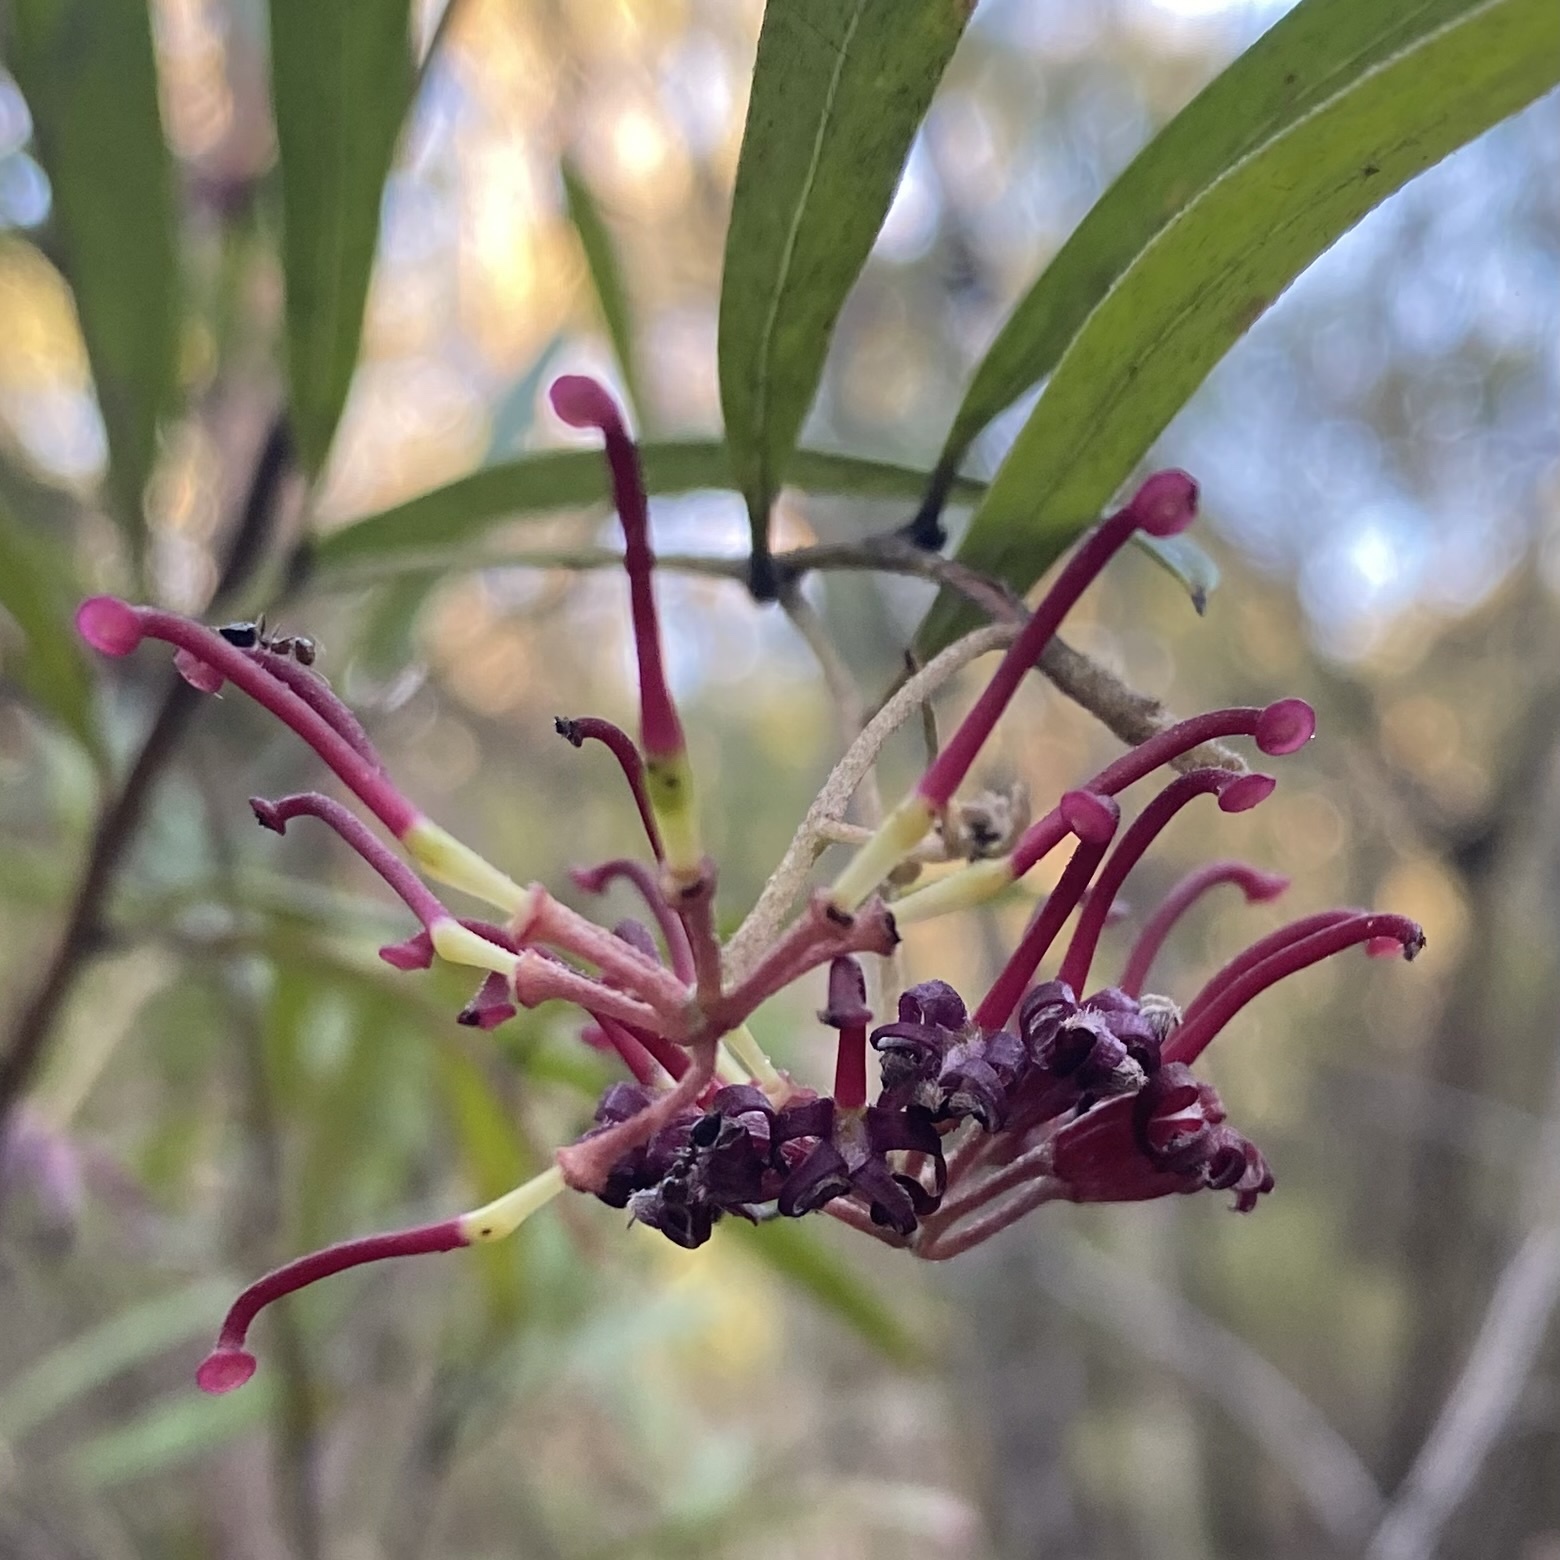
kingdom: Plantae
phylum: Tracheophyta
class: Magnoliopsida
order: Proteales
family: Proteaceae
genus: Grevillea
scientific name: Grevillea diffusa
